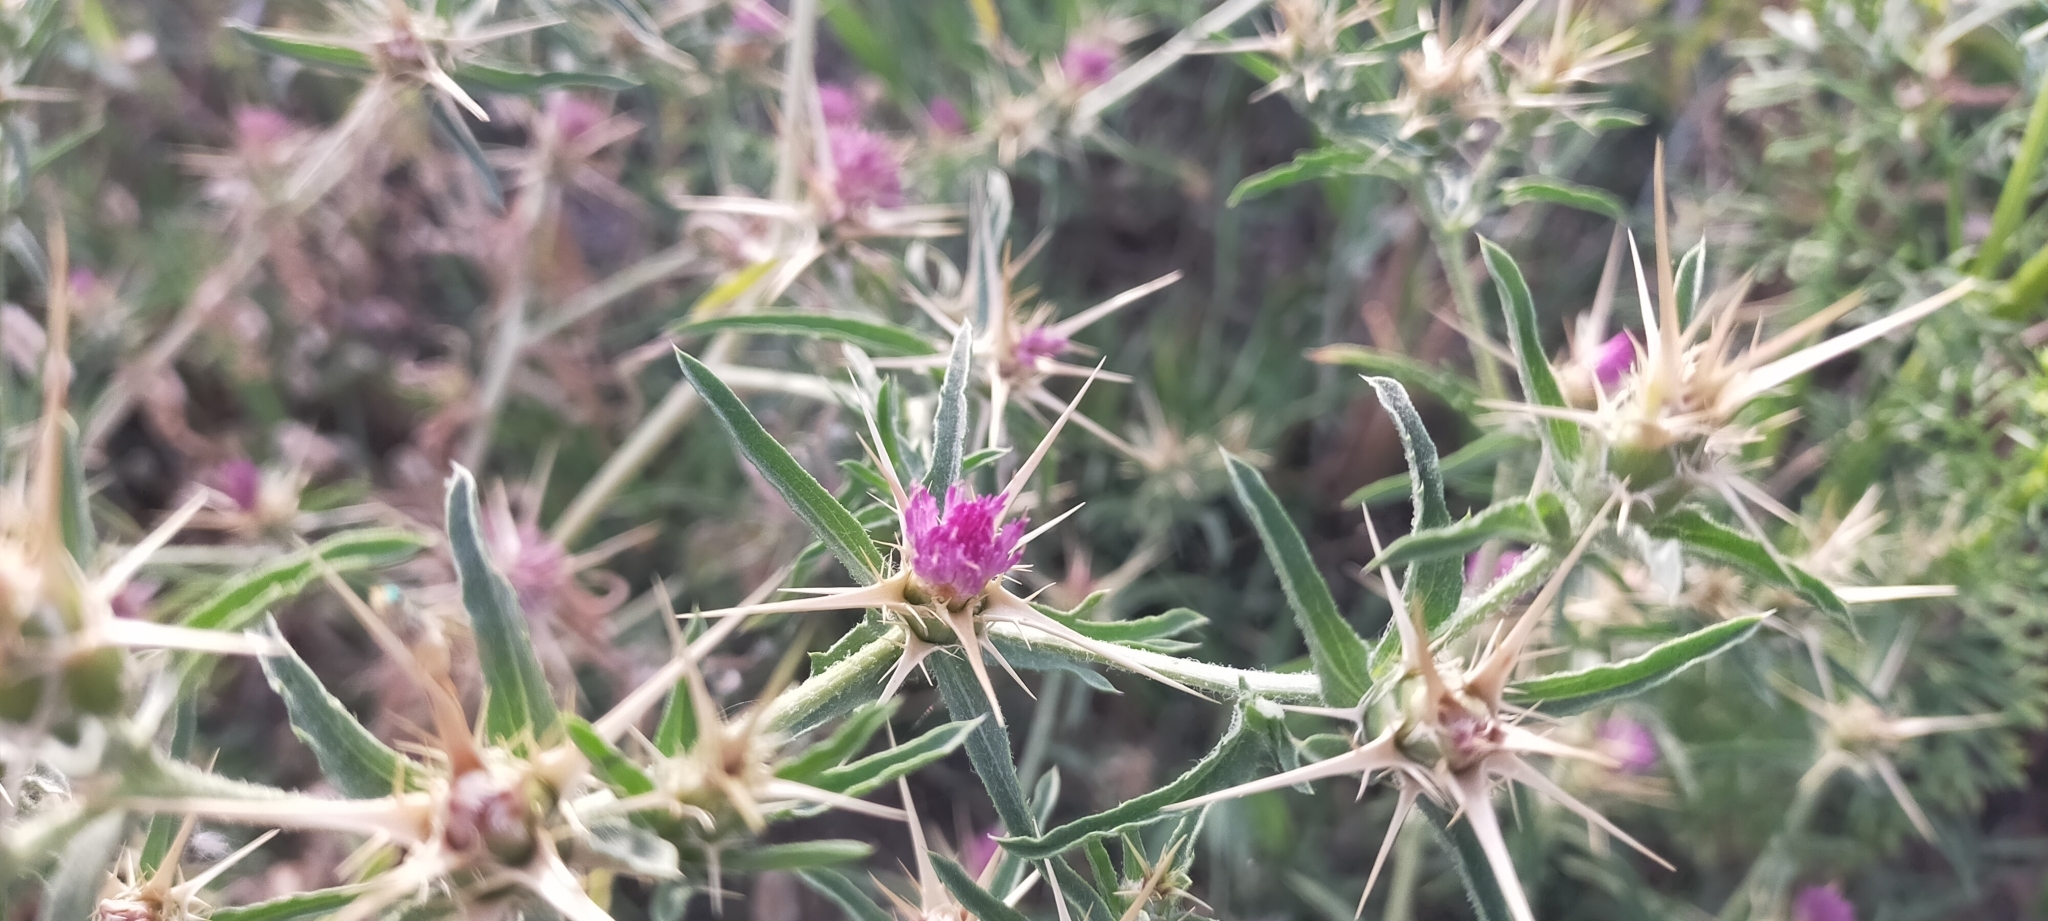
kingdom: Plantae
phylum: Tracheophyta
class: Magnoliopsida
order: Asterales
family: Asteraceae
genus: Centaurea
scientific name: Centaurea calcitrapa
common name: Red star-thistle
